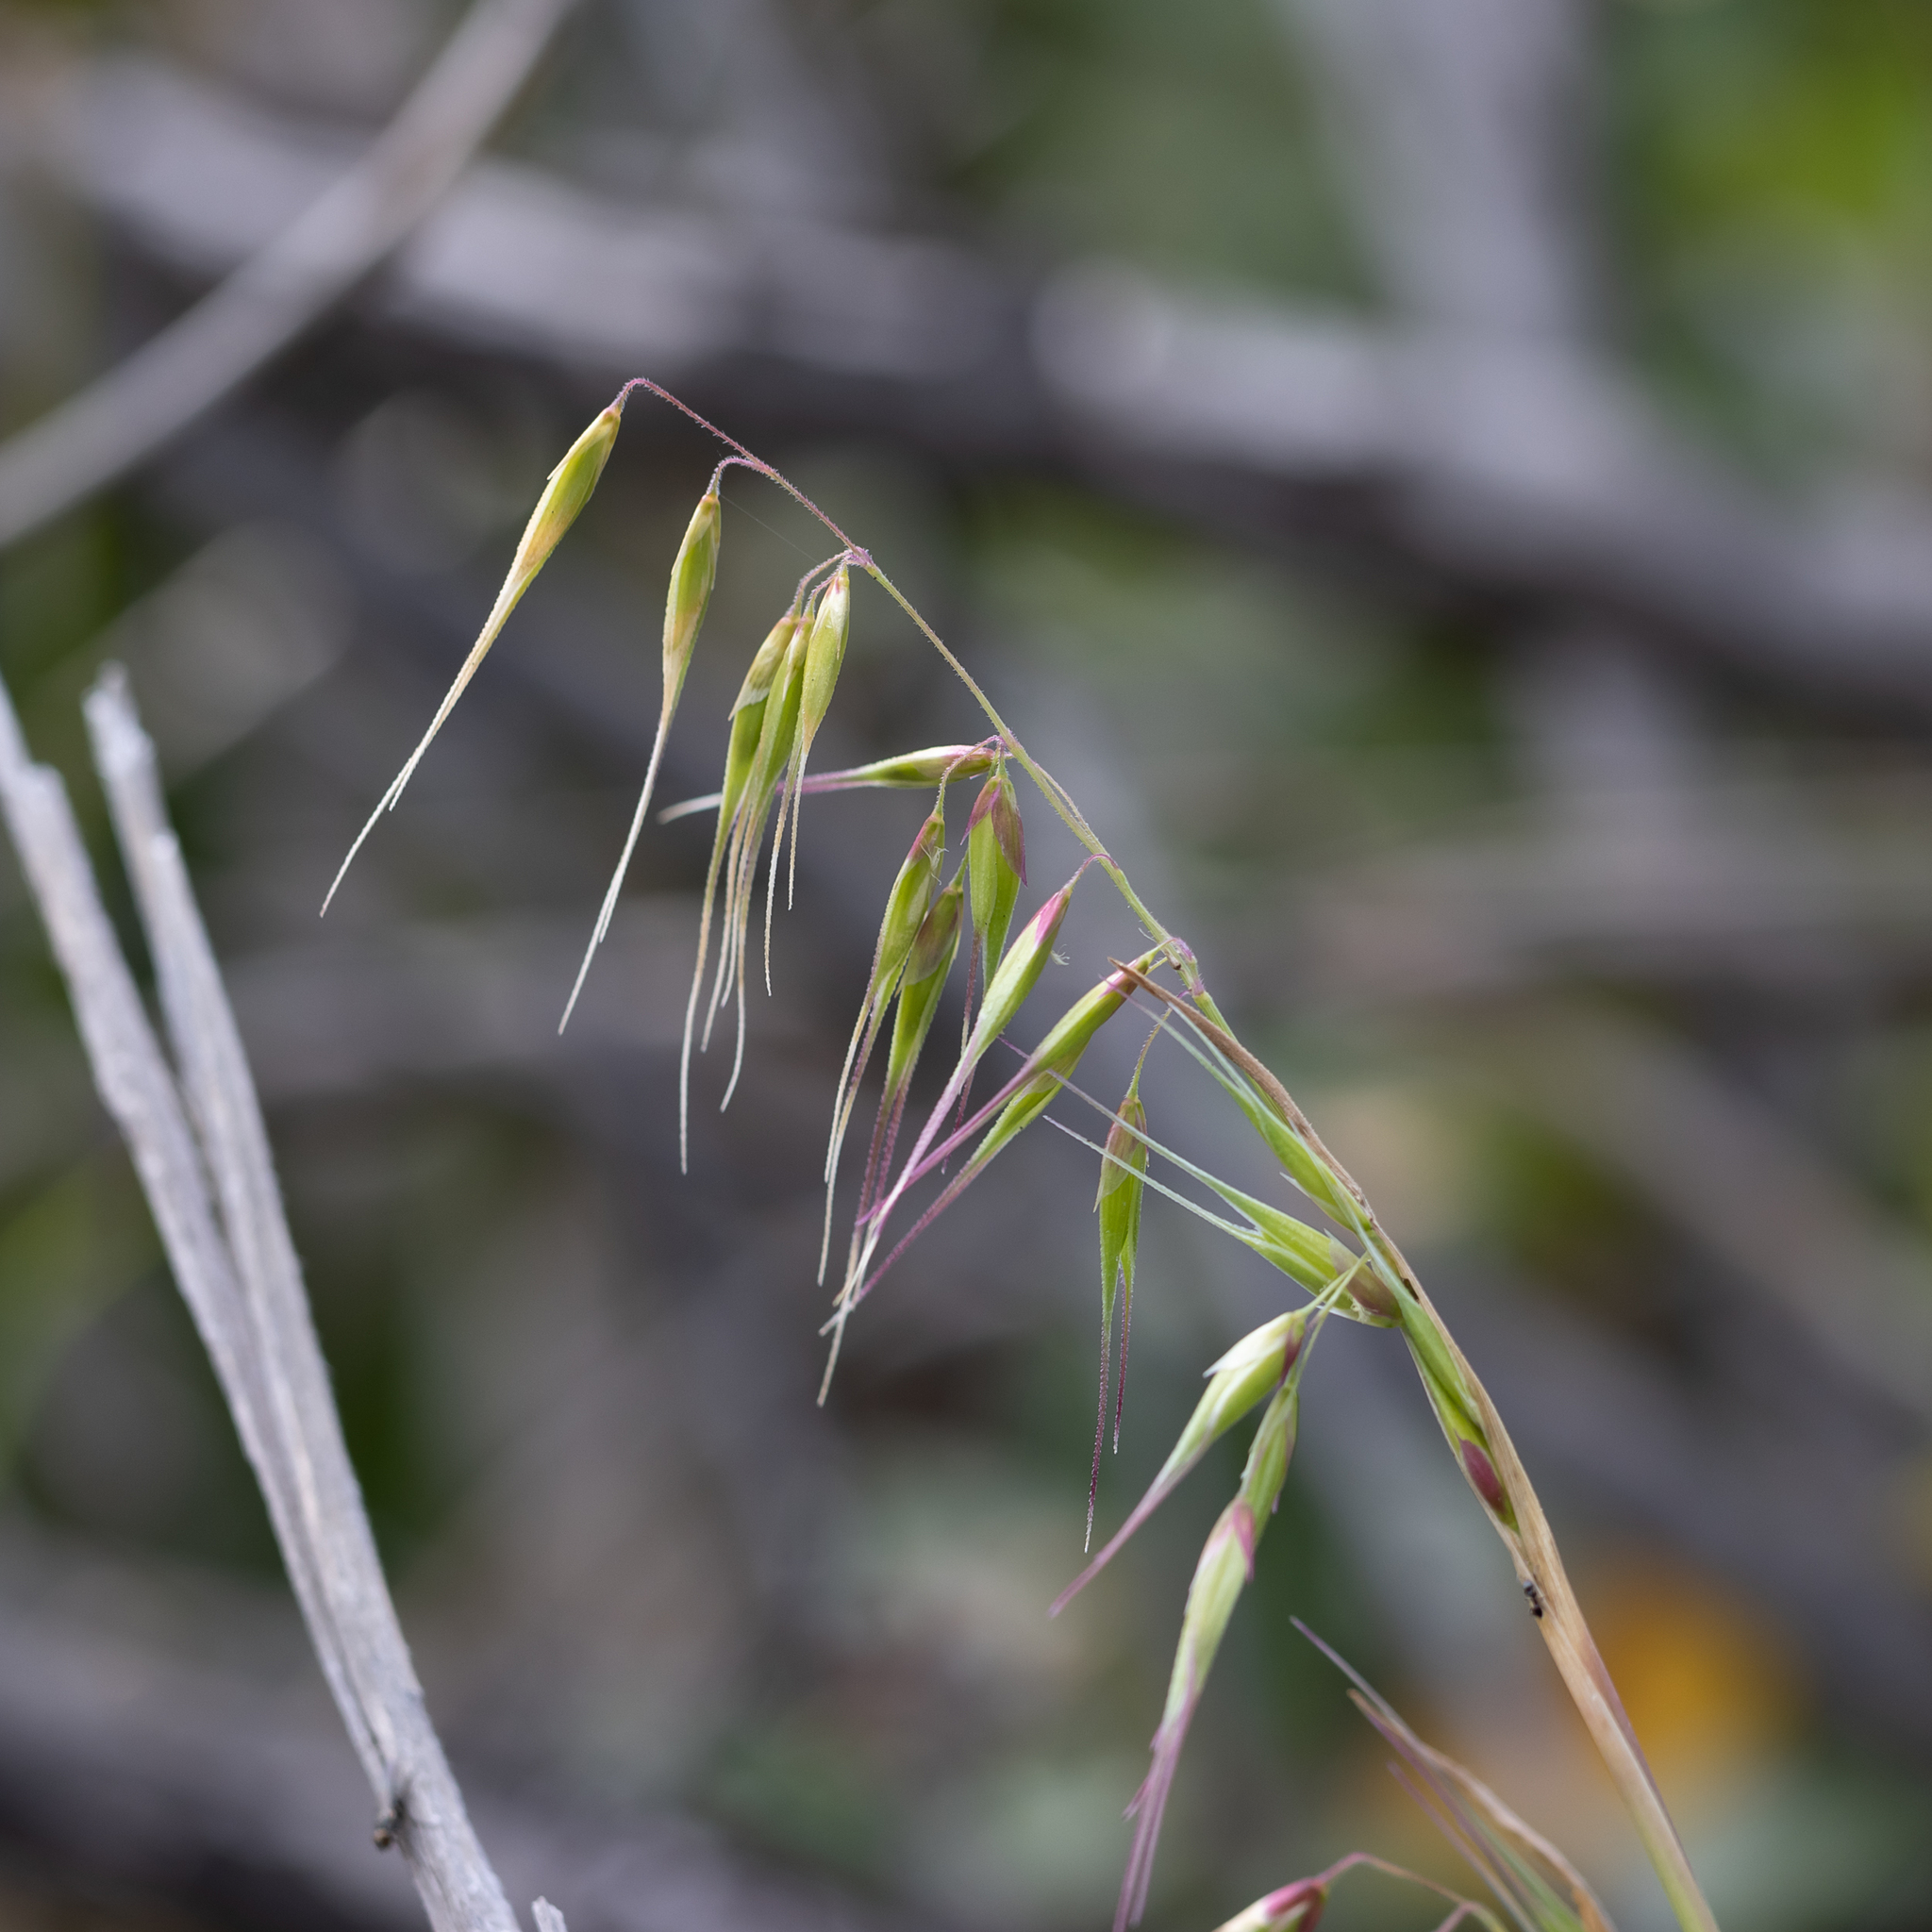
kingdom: Plantae
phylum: Tracheophyta
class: Liliopsida
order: Poales
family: Poaceae
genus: Ehrharta
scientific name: Ehrharta longiflora
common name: Longflowered veldtgrass
